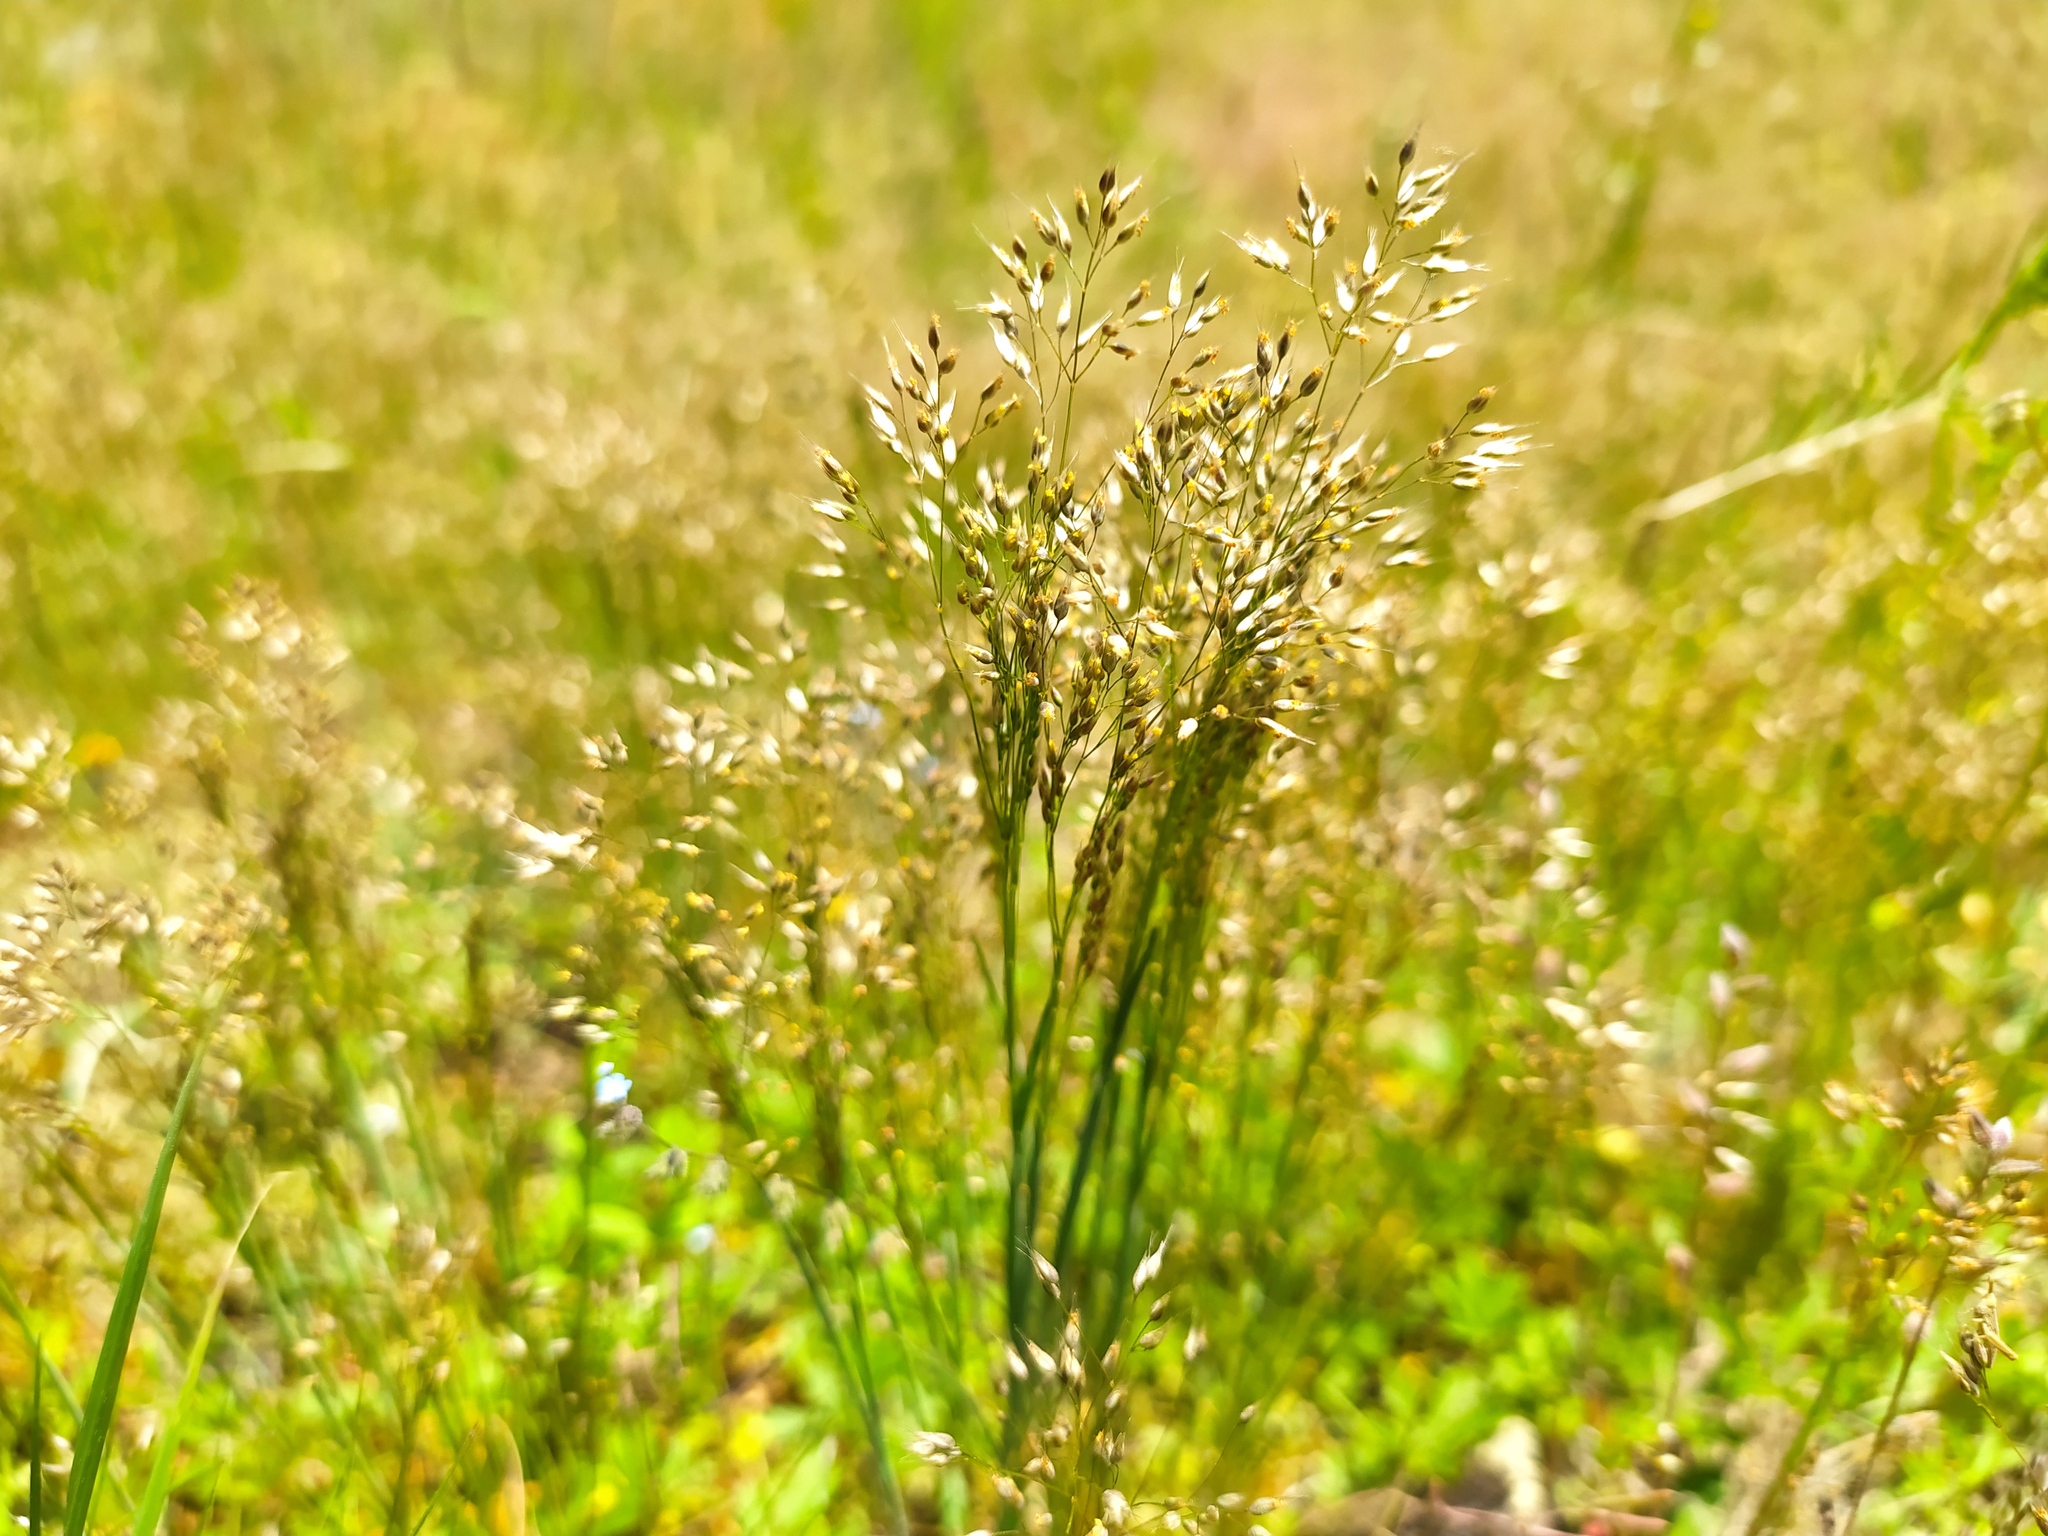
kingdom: Plantae
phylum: Tracheophyta
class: Liliopsida
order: Poales
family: Poaceae
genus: Aira
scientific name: Aira caryophyllea
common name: Silver hairgrass
